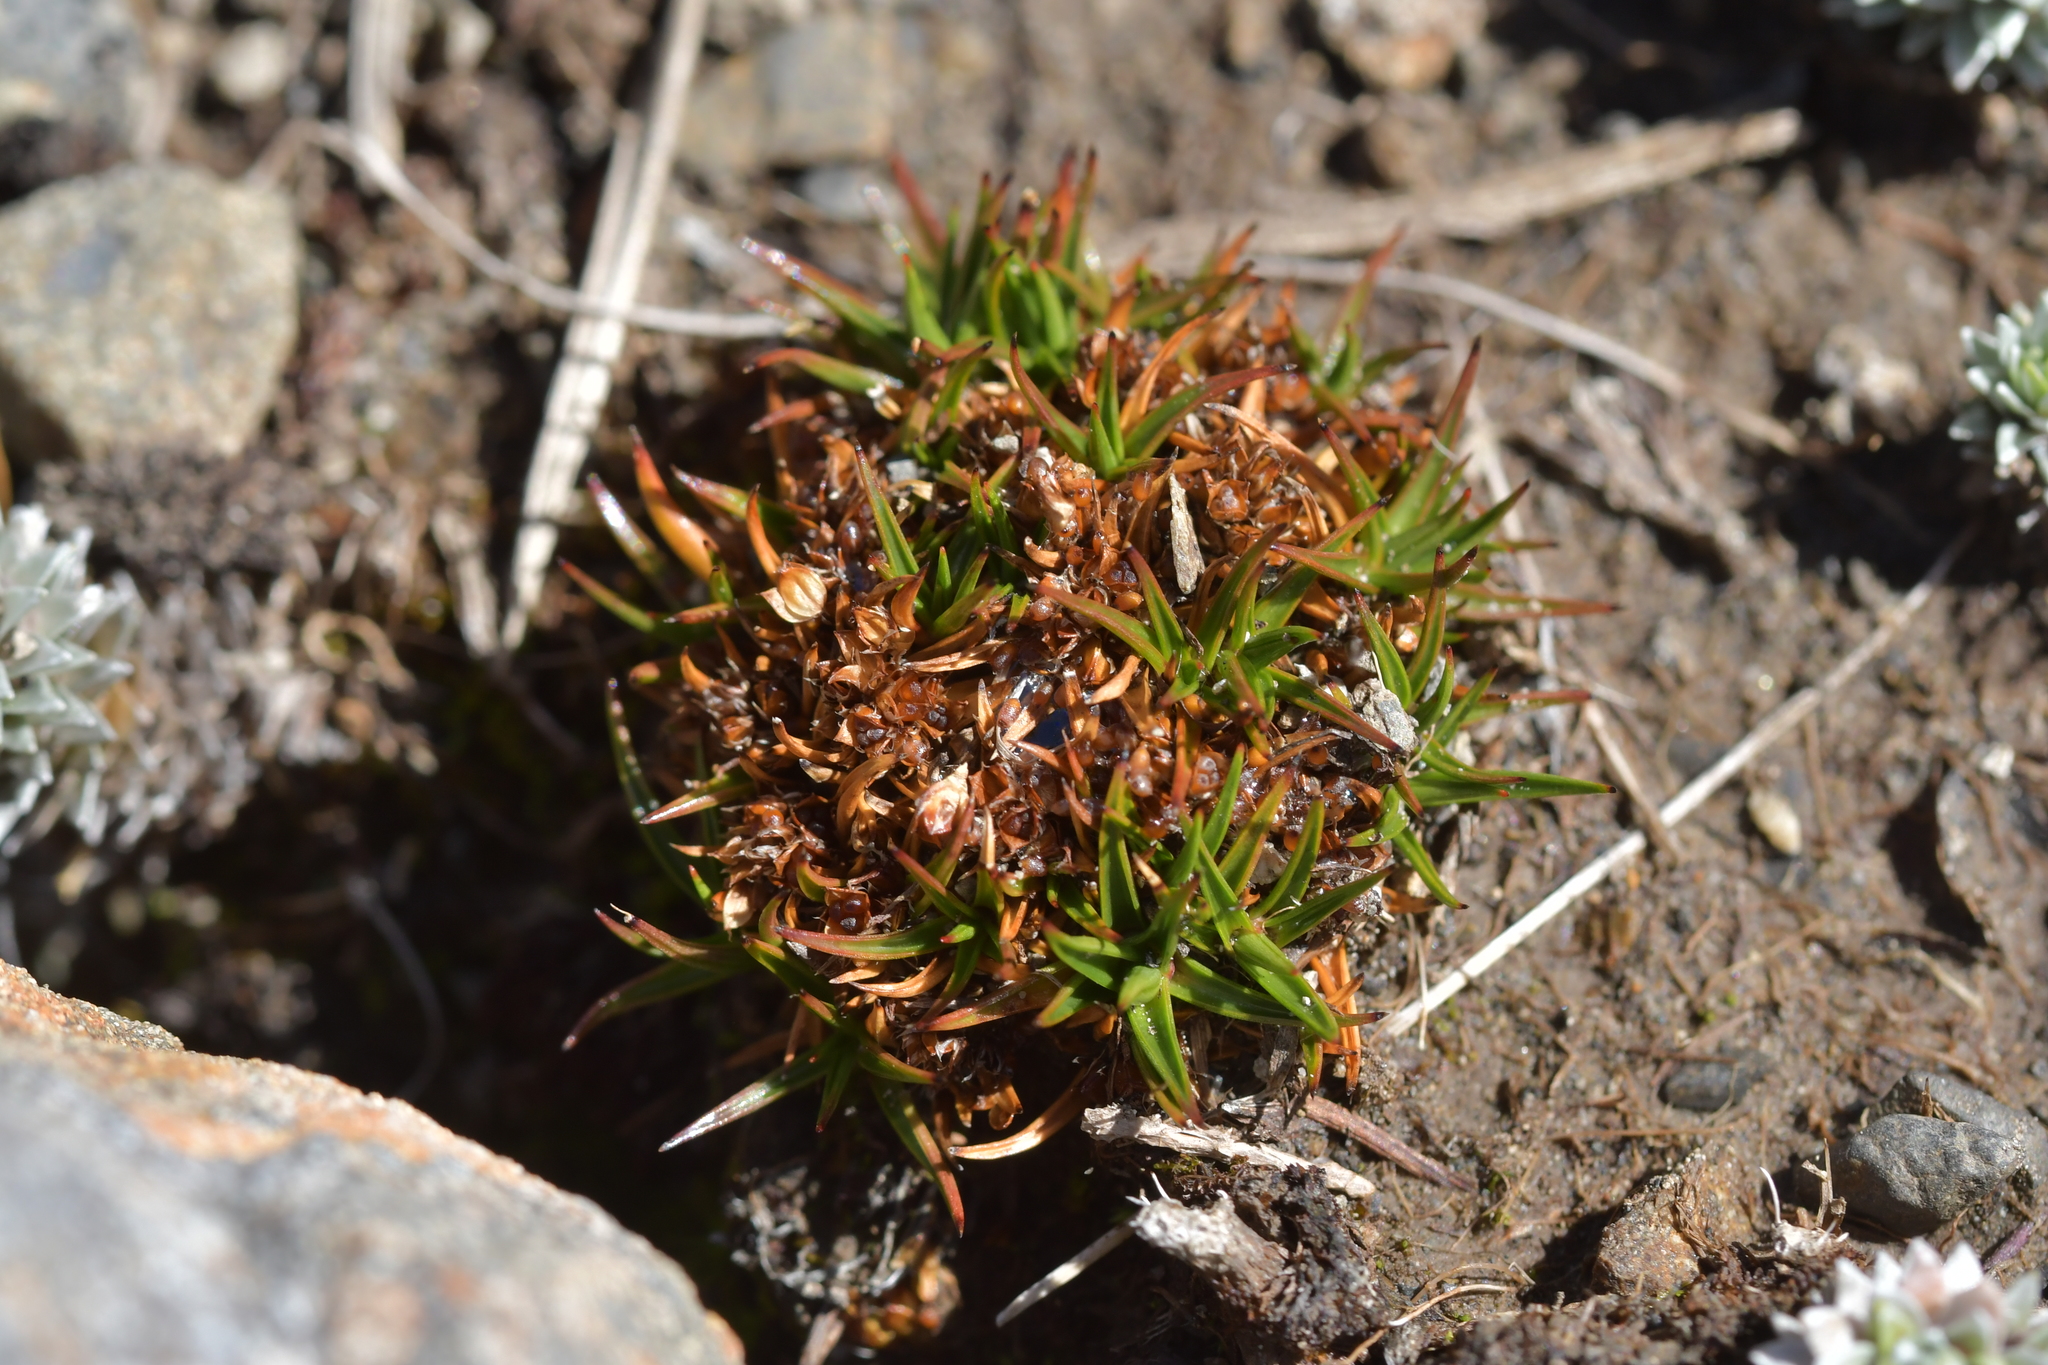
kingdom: Plantae
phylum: Tracheophyta
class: Liliopsida
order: Poales
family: Juncaceae
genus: Luzula
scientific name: Luzula colensoi
